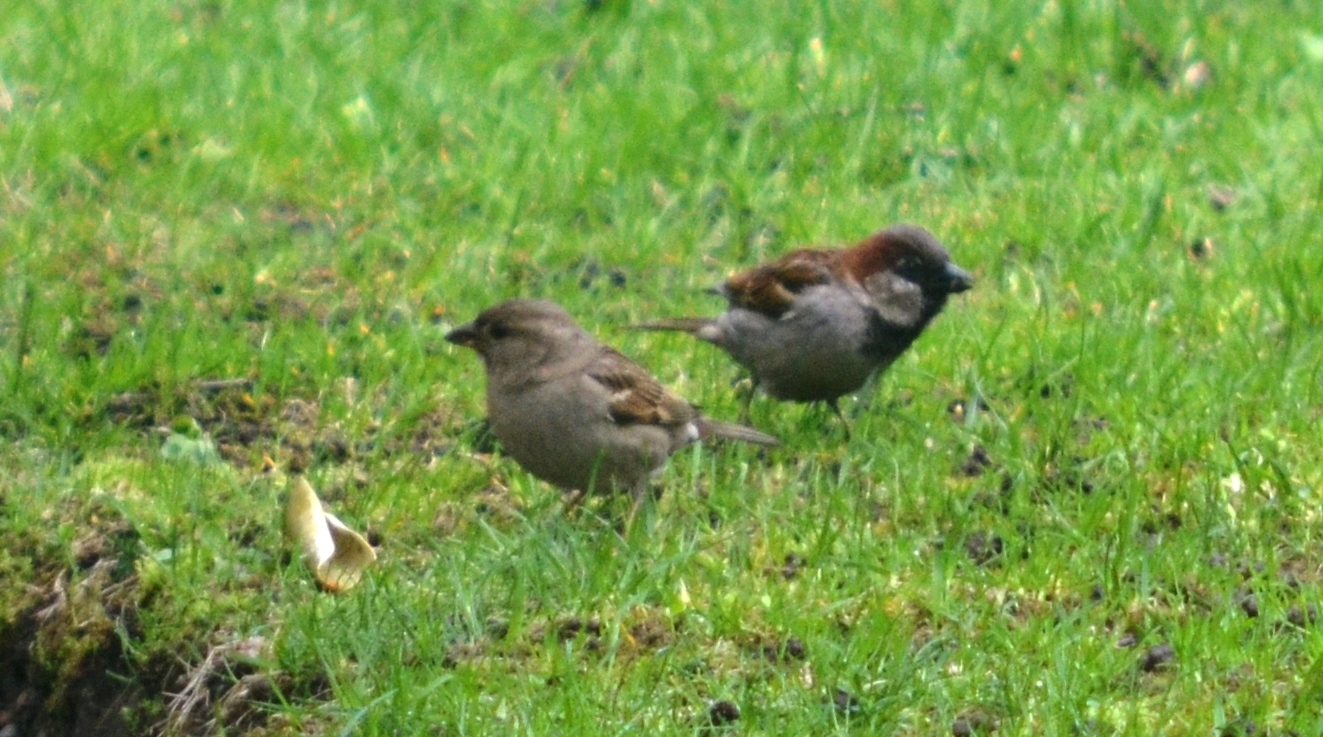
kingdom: Animalia
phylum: Chordata
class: Aves
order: Passeriformes
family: Passeridae
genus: Passer
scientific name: Passer domesticus
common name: House sparrow
